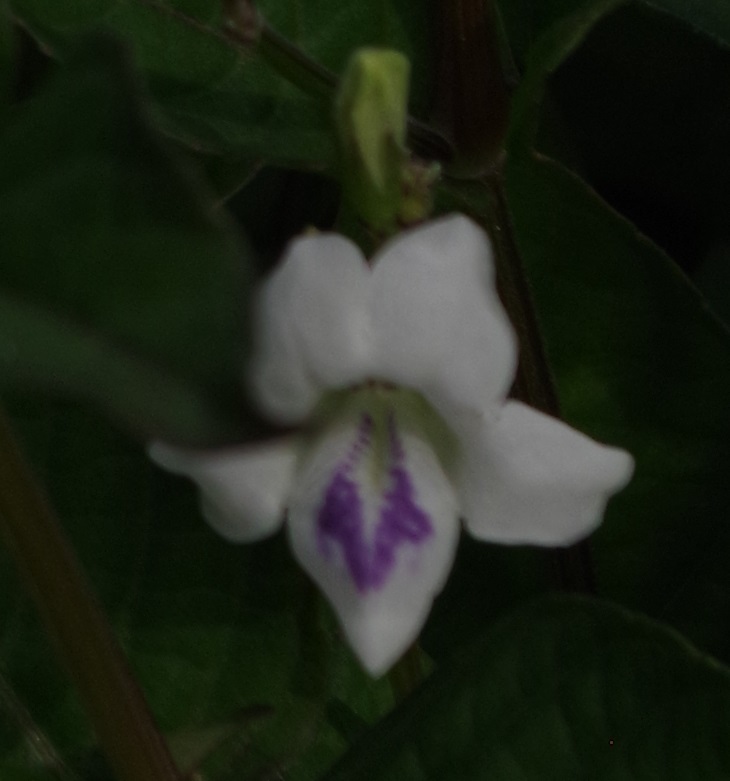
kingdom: Plantae
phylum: Tracheophyta
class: Magnoliopsida
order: Lamiales
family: Acanthaceae
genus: Asystasia
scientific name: Asystasia intrusa
